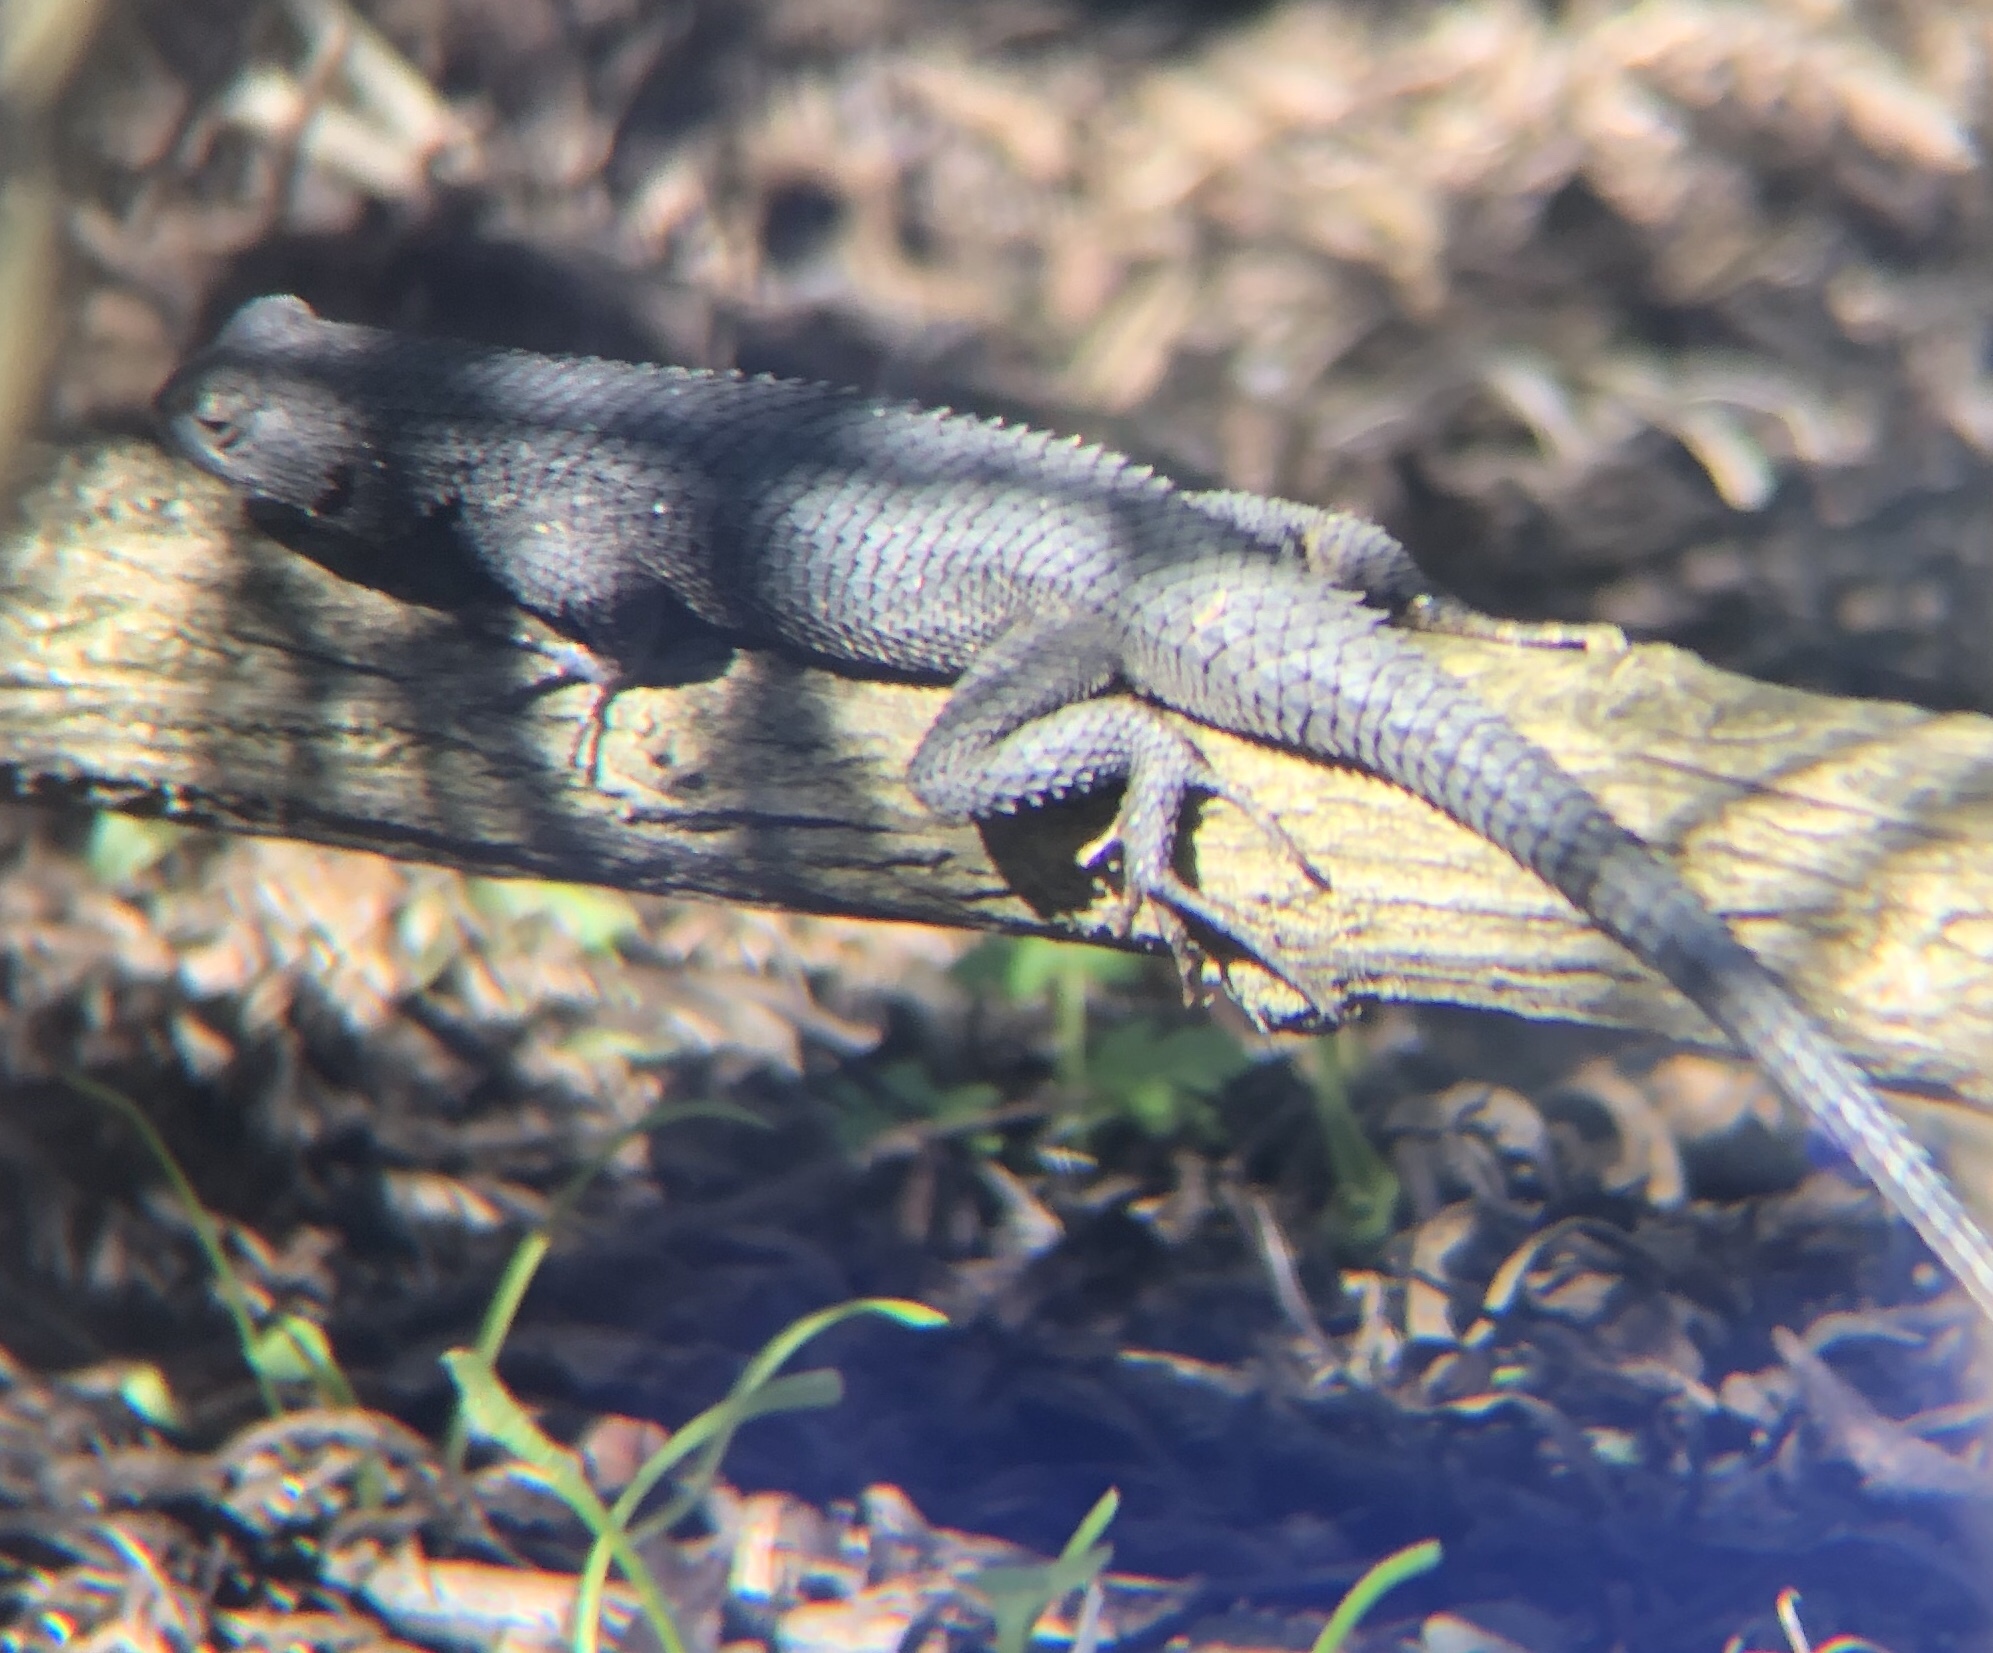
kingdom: Animalia
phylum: Chordata
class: Squamata
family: Phrynosomatidae
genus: Sceloporus
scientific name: Sceloporus occidentalis
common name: Western fence lizard
